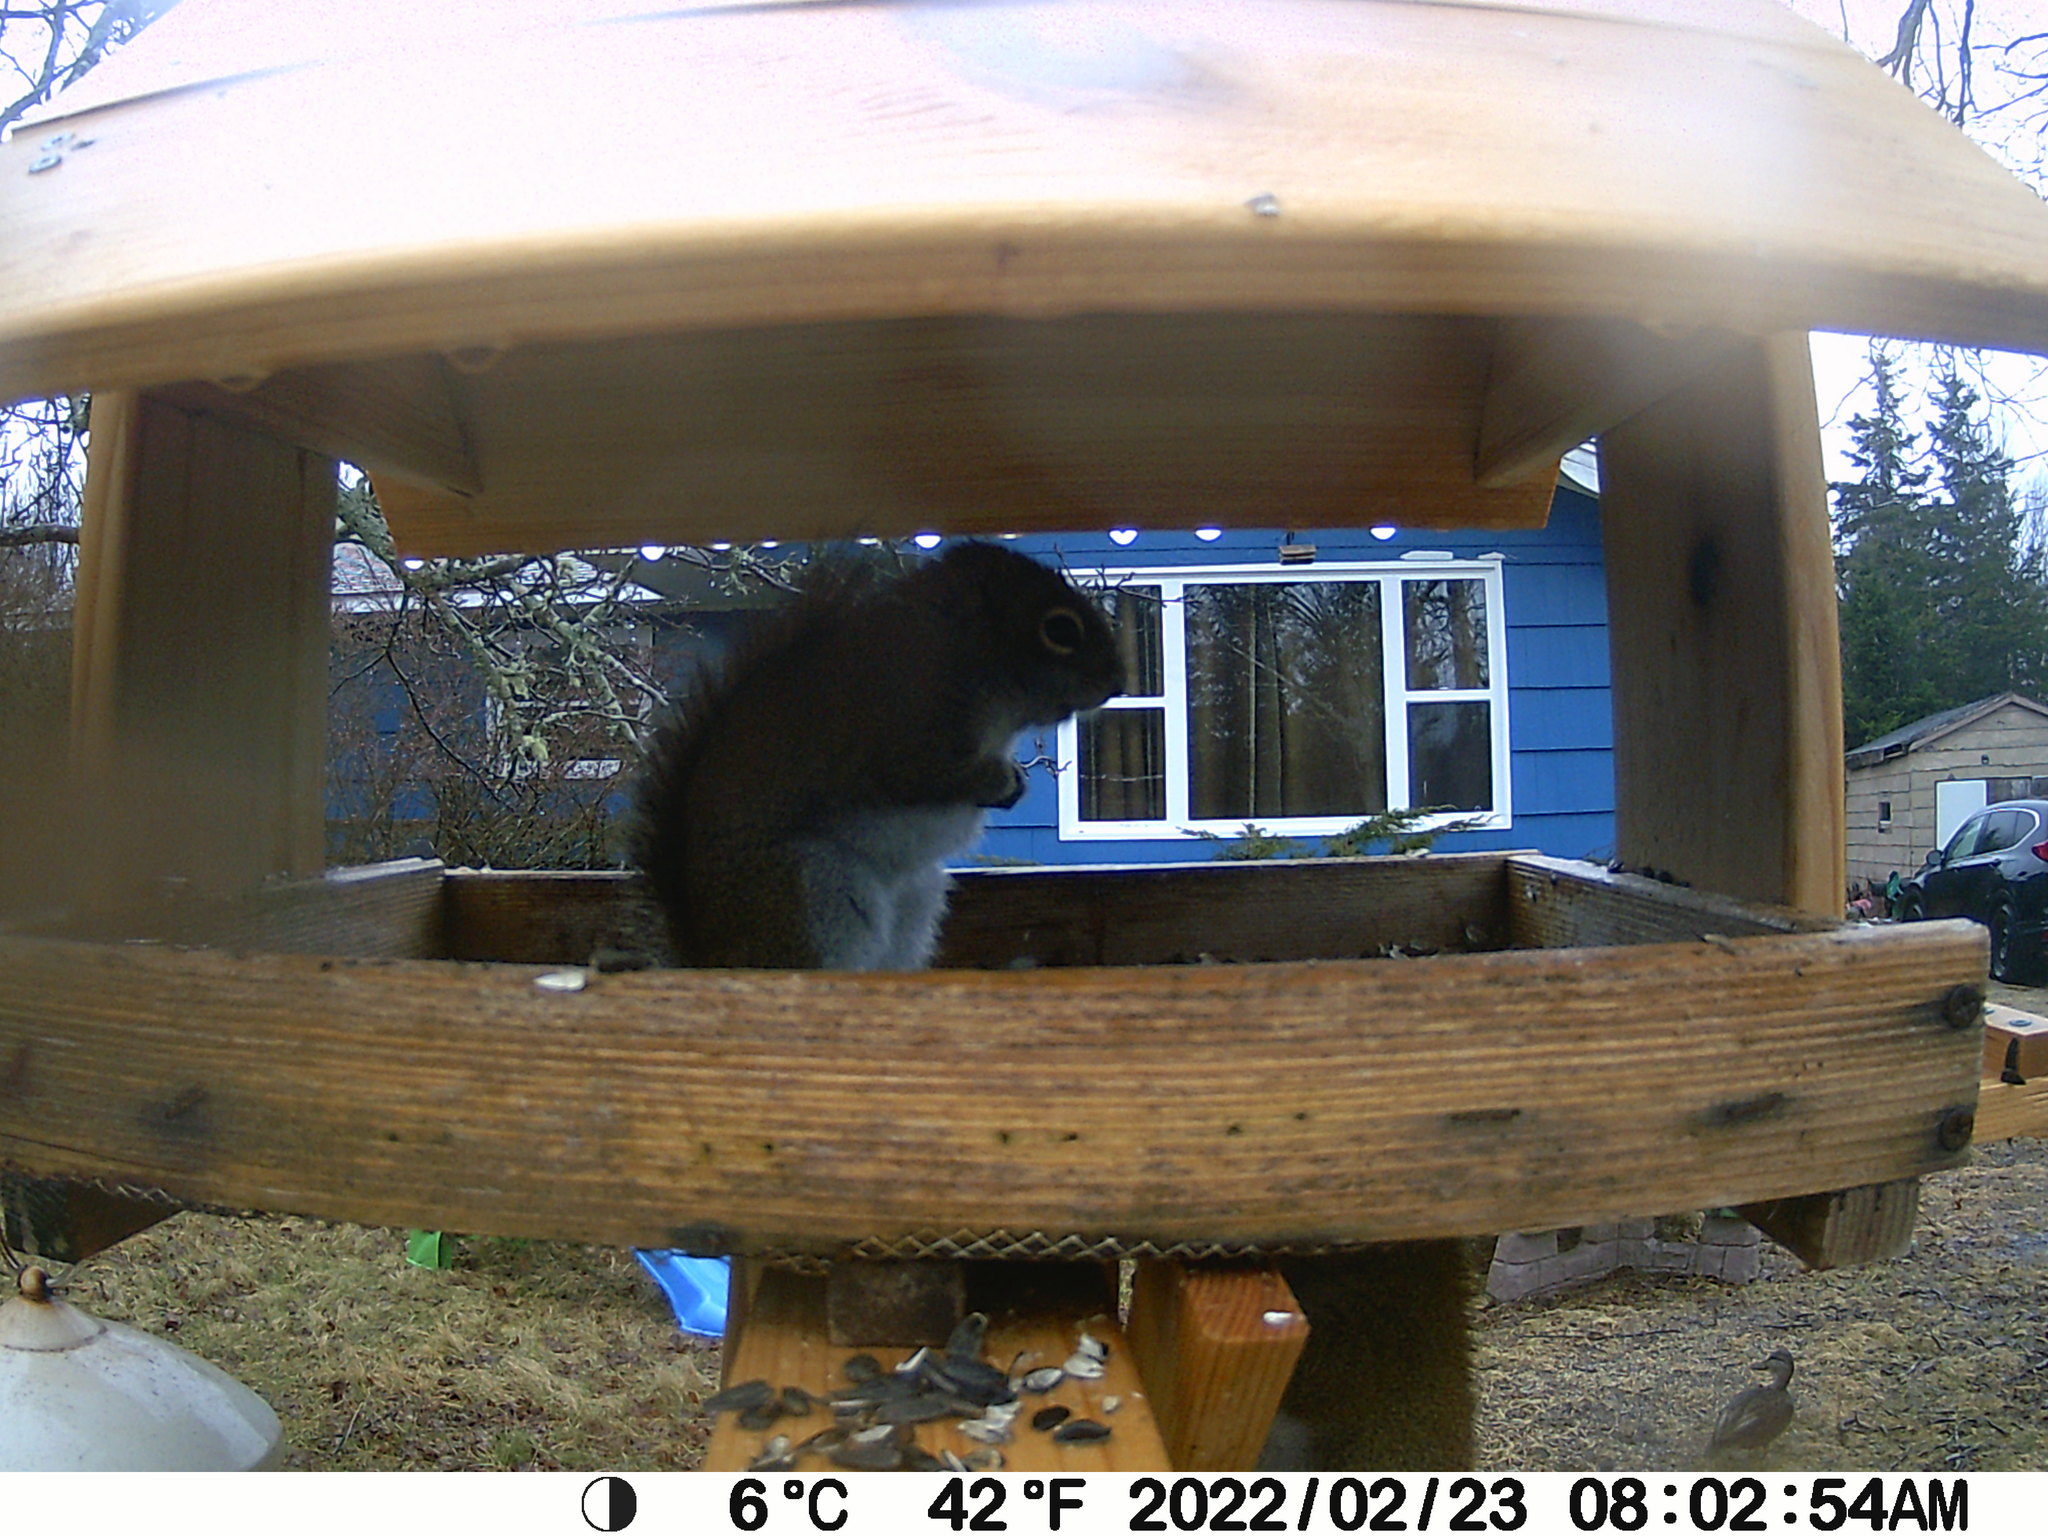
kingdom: Animalia
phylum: Chordata
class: Aves
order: Anseriformes
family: Anatidae
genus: Anas
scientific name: Anas rubripes
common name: American black duck
